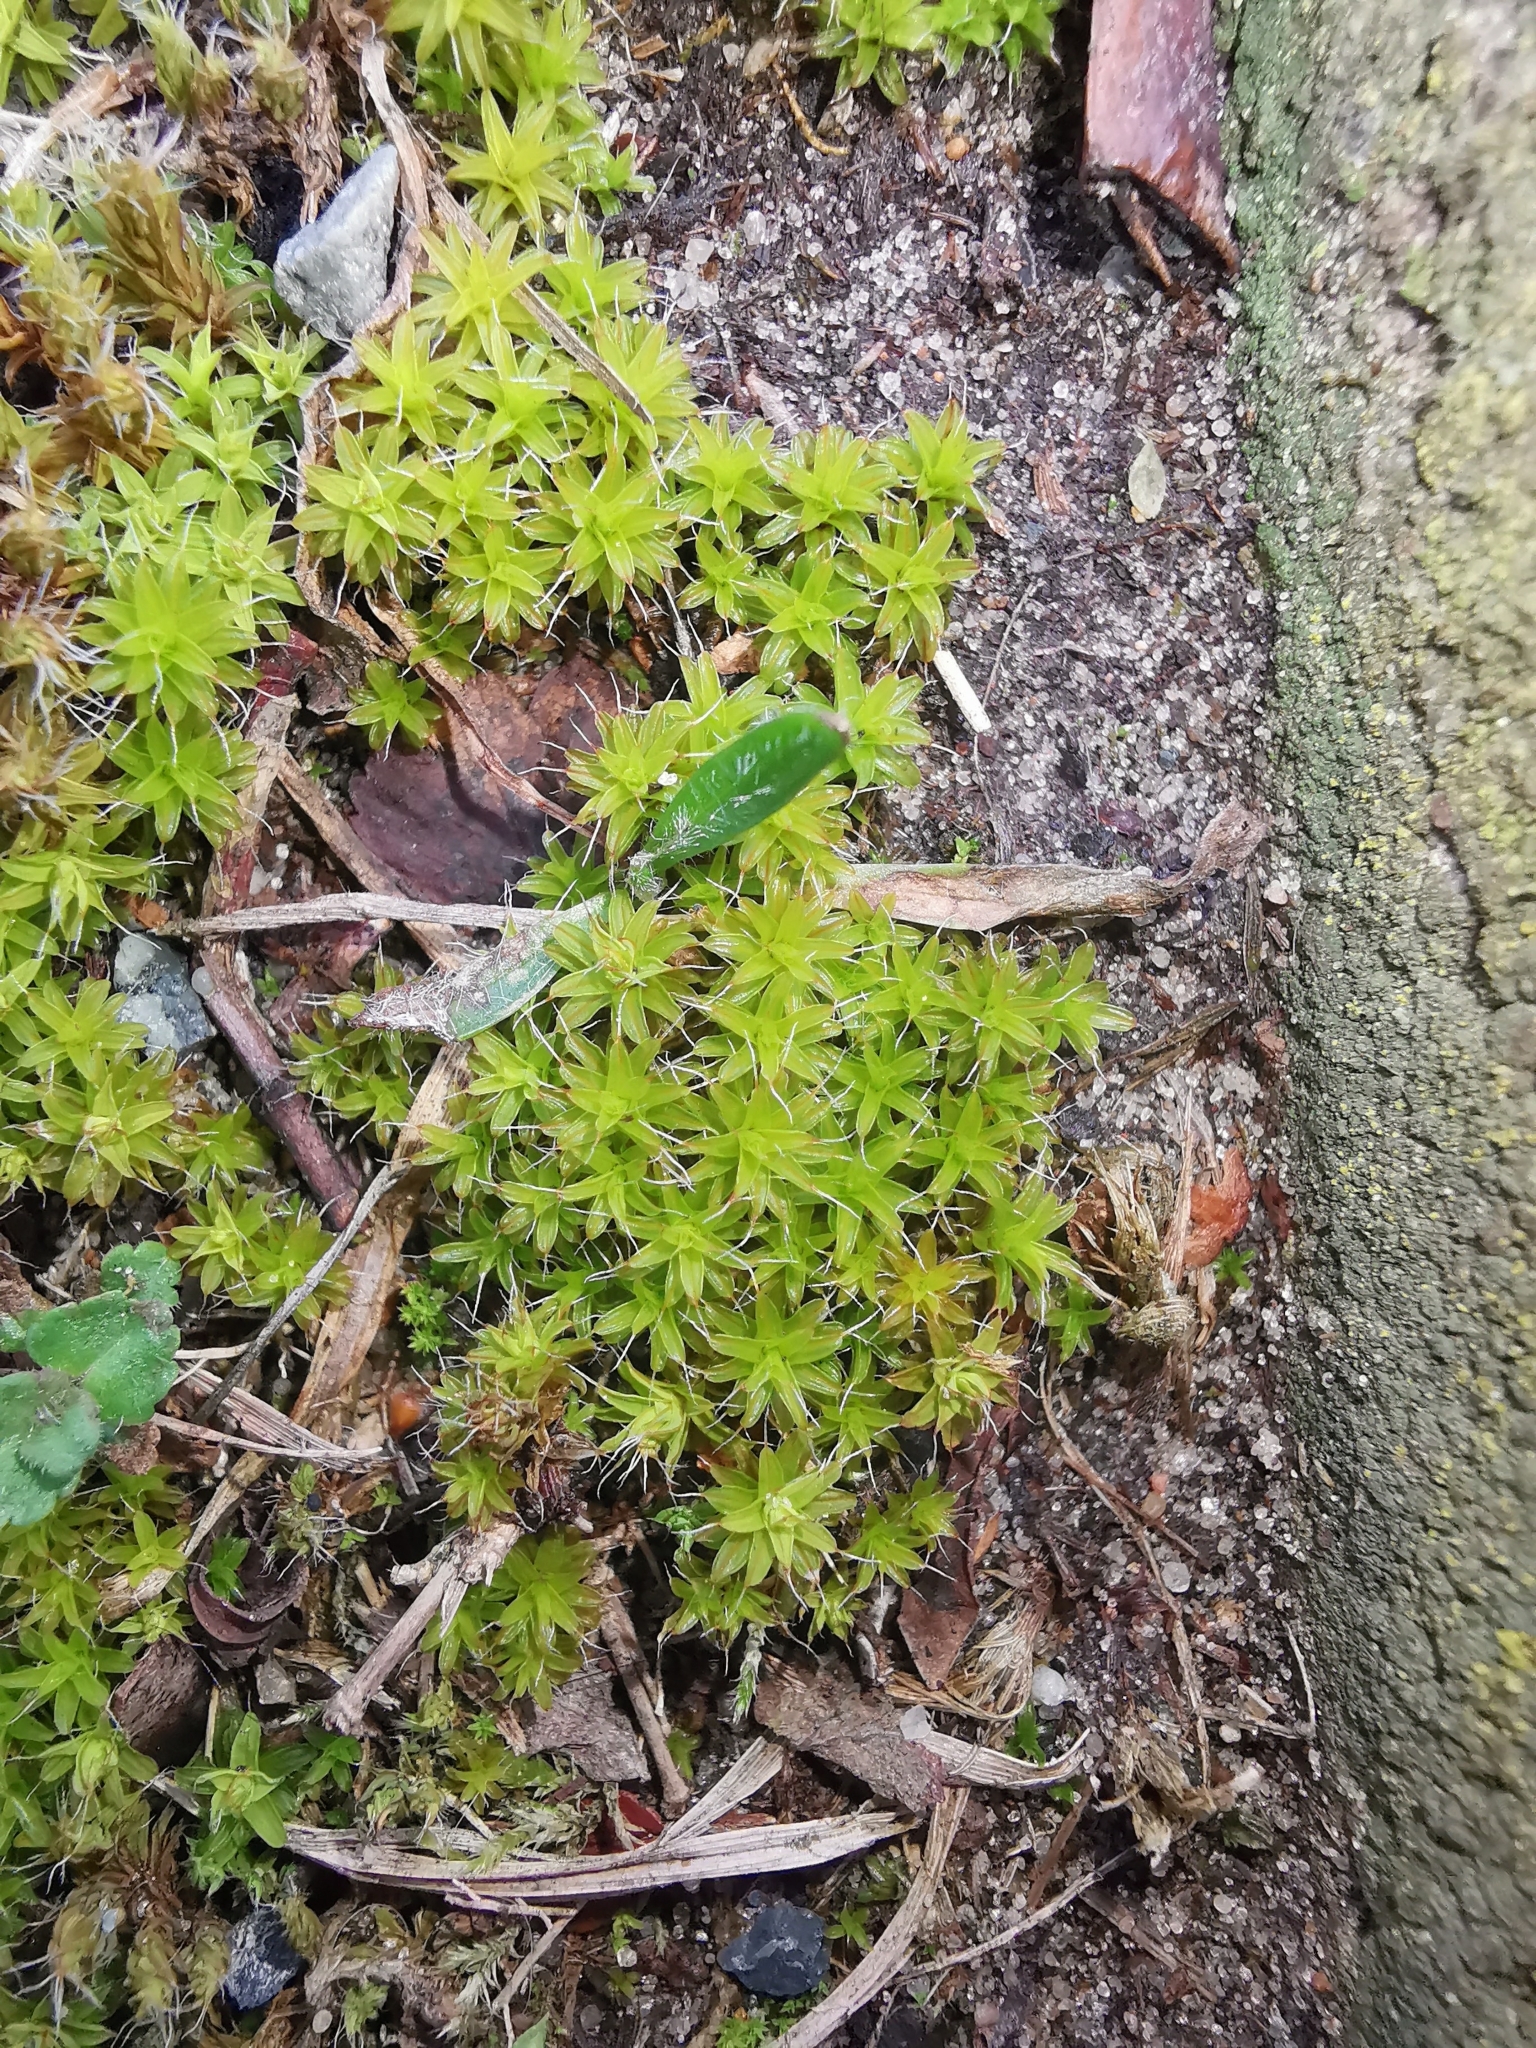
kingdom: Plantae
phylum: Bryophyta
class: Bryopsida
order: Pottiales
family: Pottiaceae
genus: Syntrichia
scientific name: Syntrichia ruralis
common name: Sidewalk screw moss
